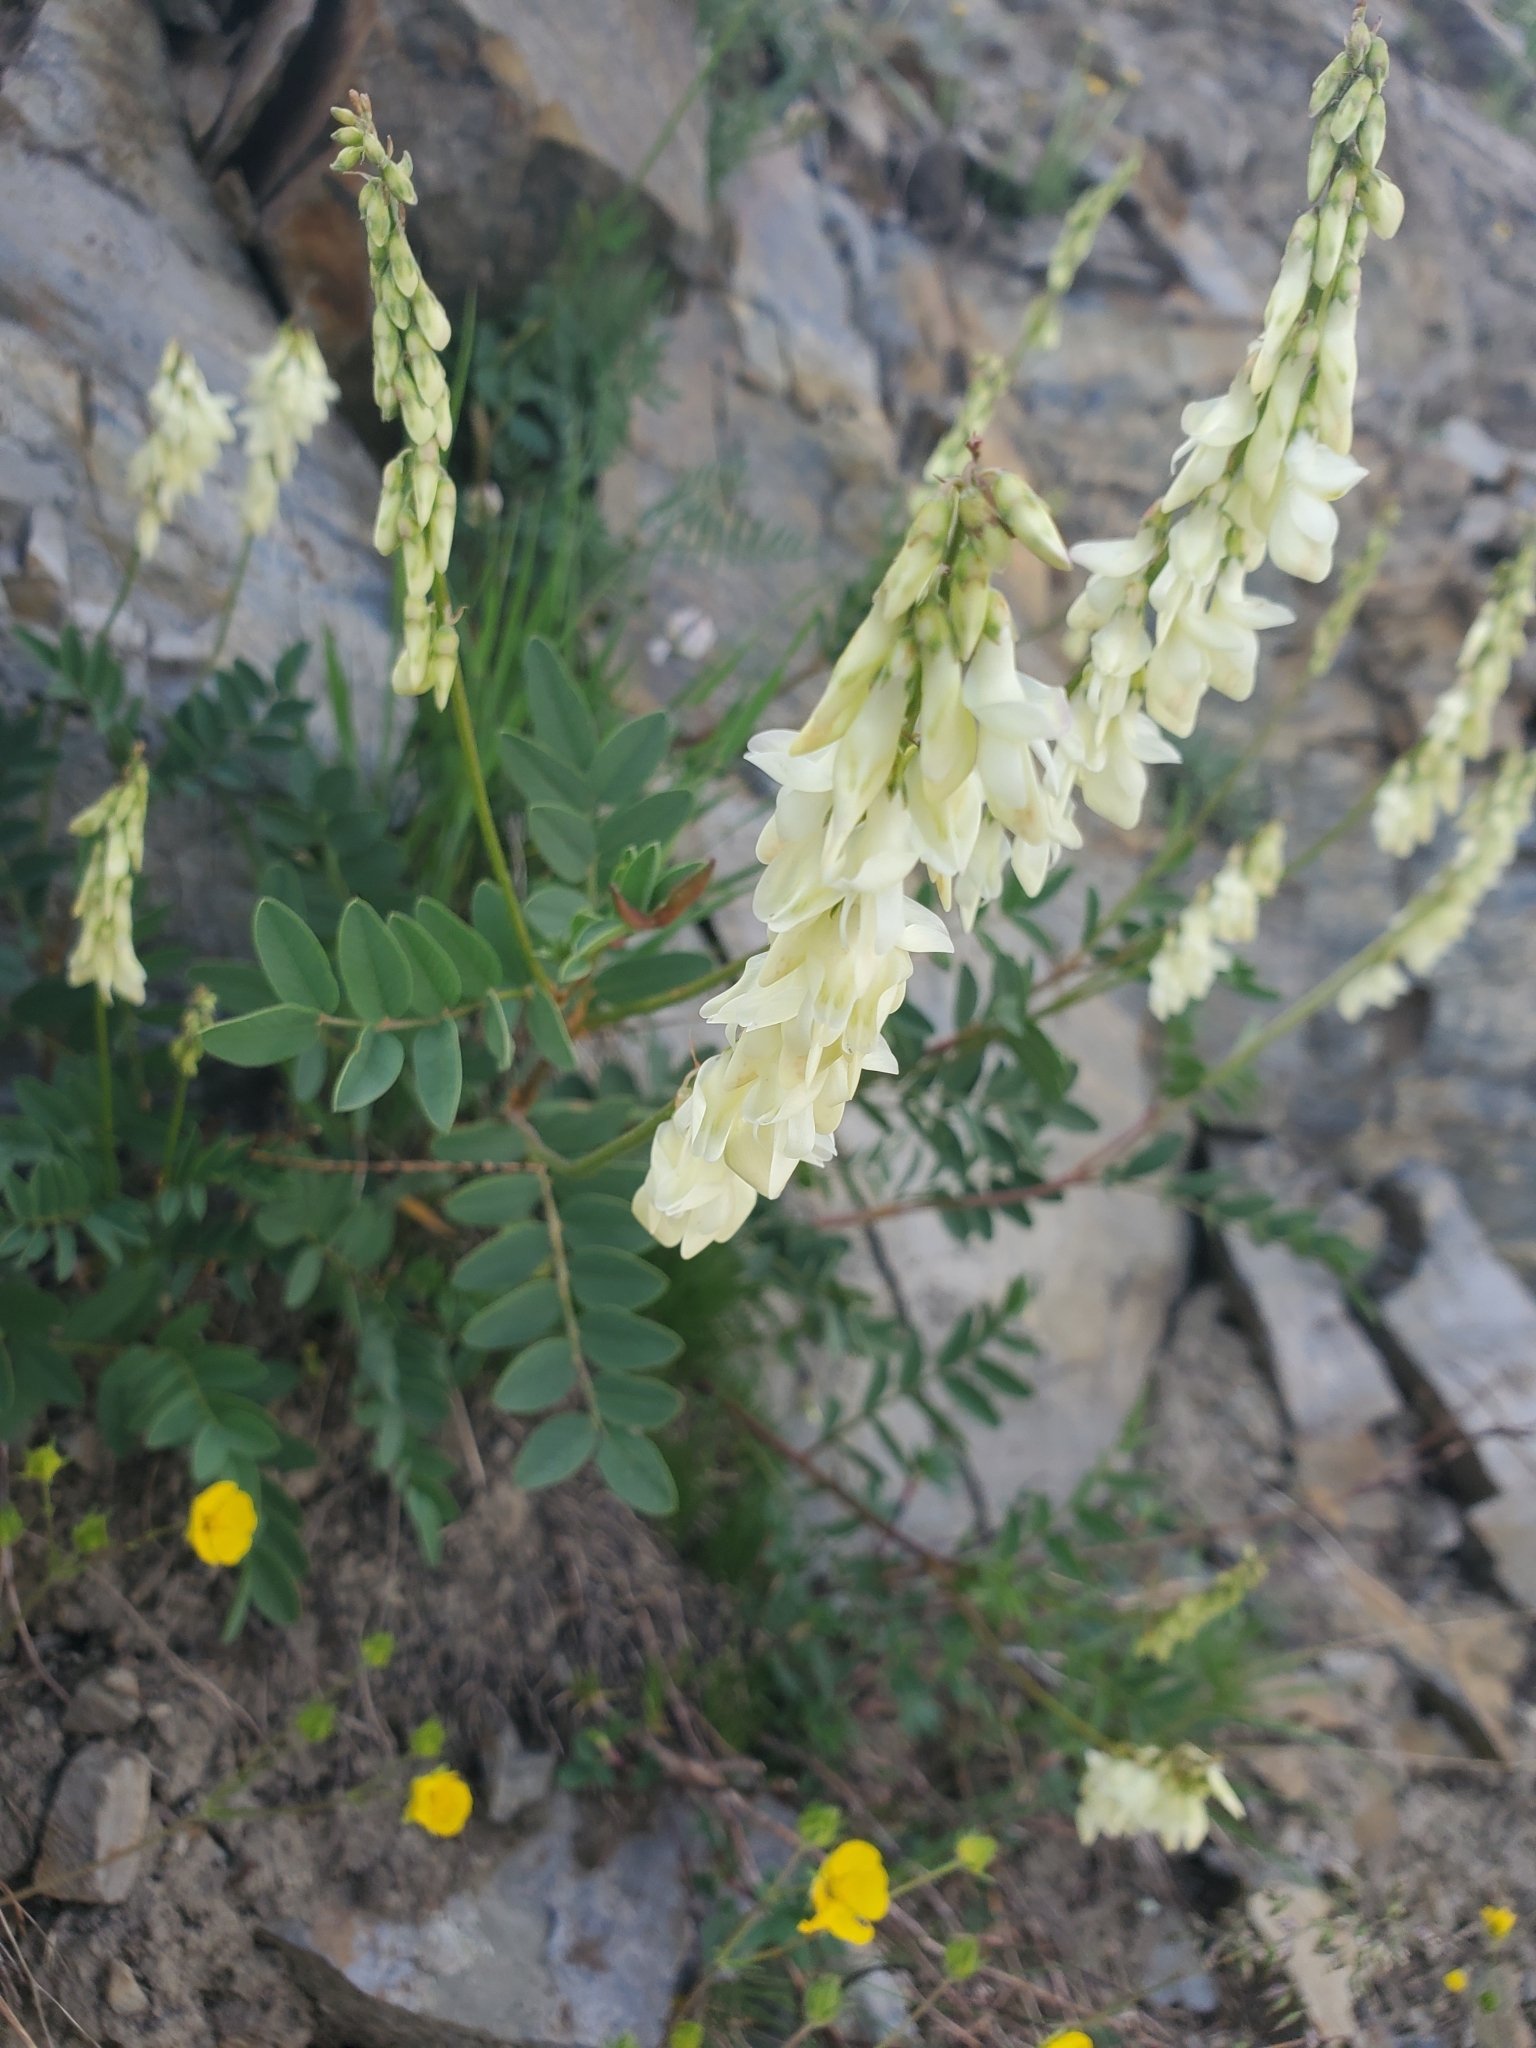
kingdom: Plantae
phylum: Tracheophyta
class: Magnoliopsida
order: Fabales
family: Fabaceae
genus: Hedysarum
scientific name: Hedysarum sulphurescens
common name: Sulphur hedysarum
